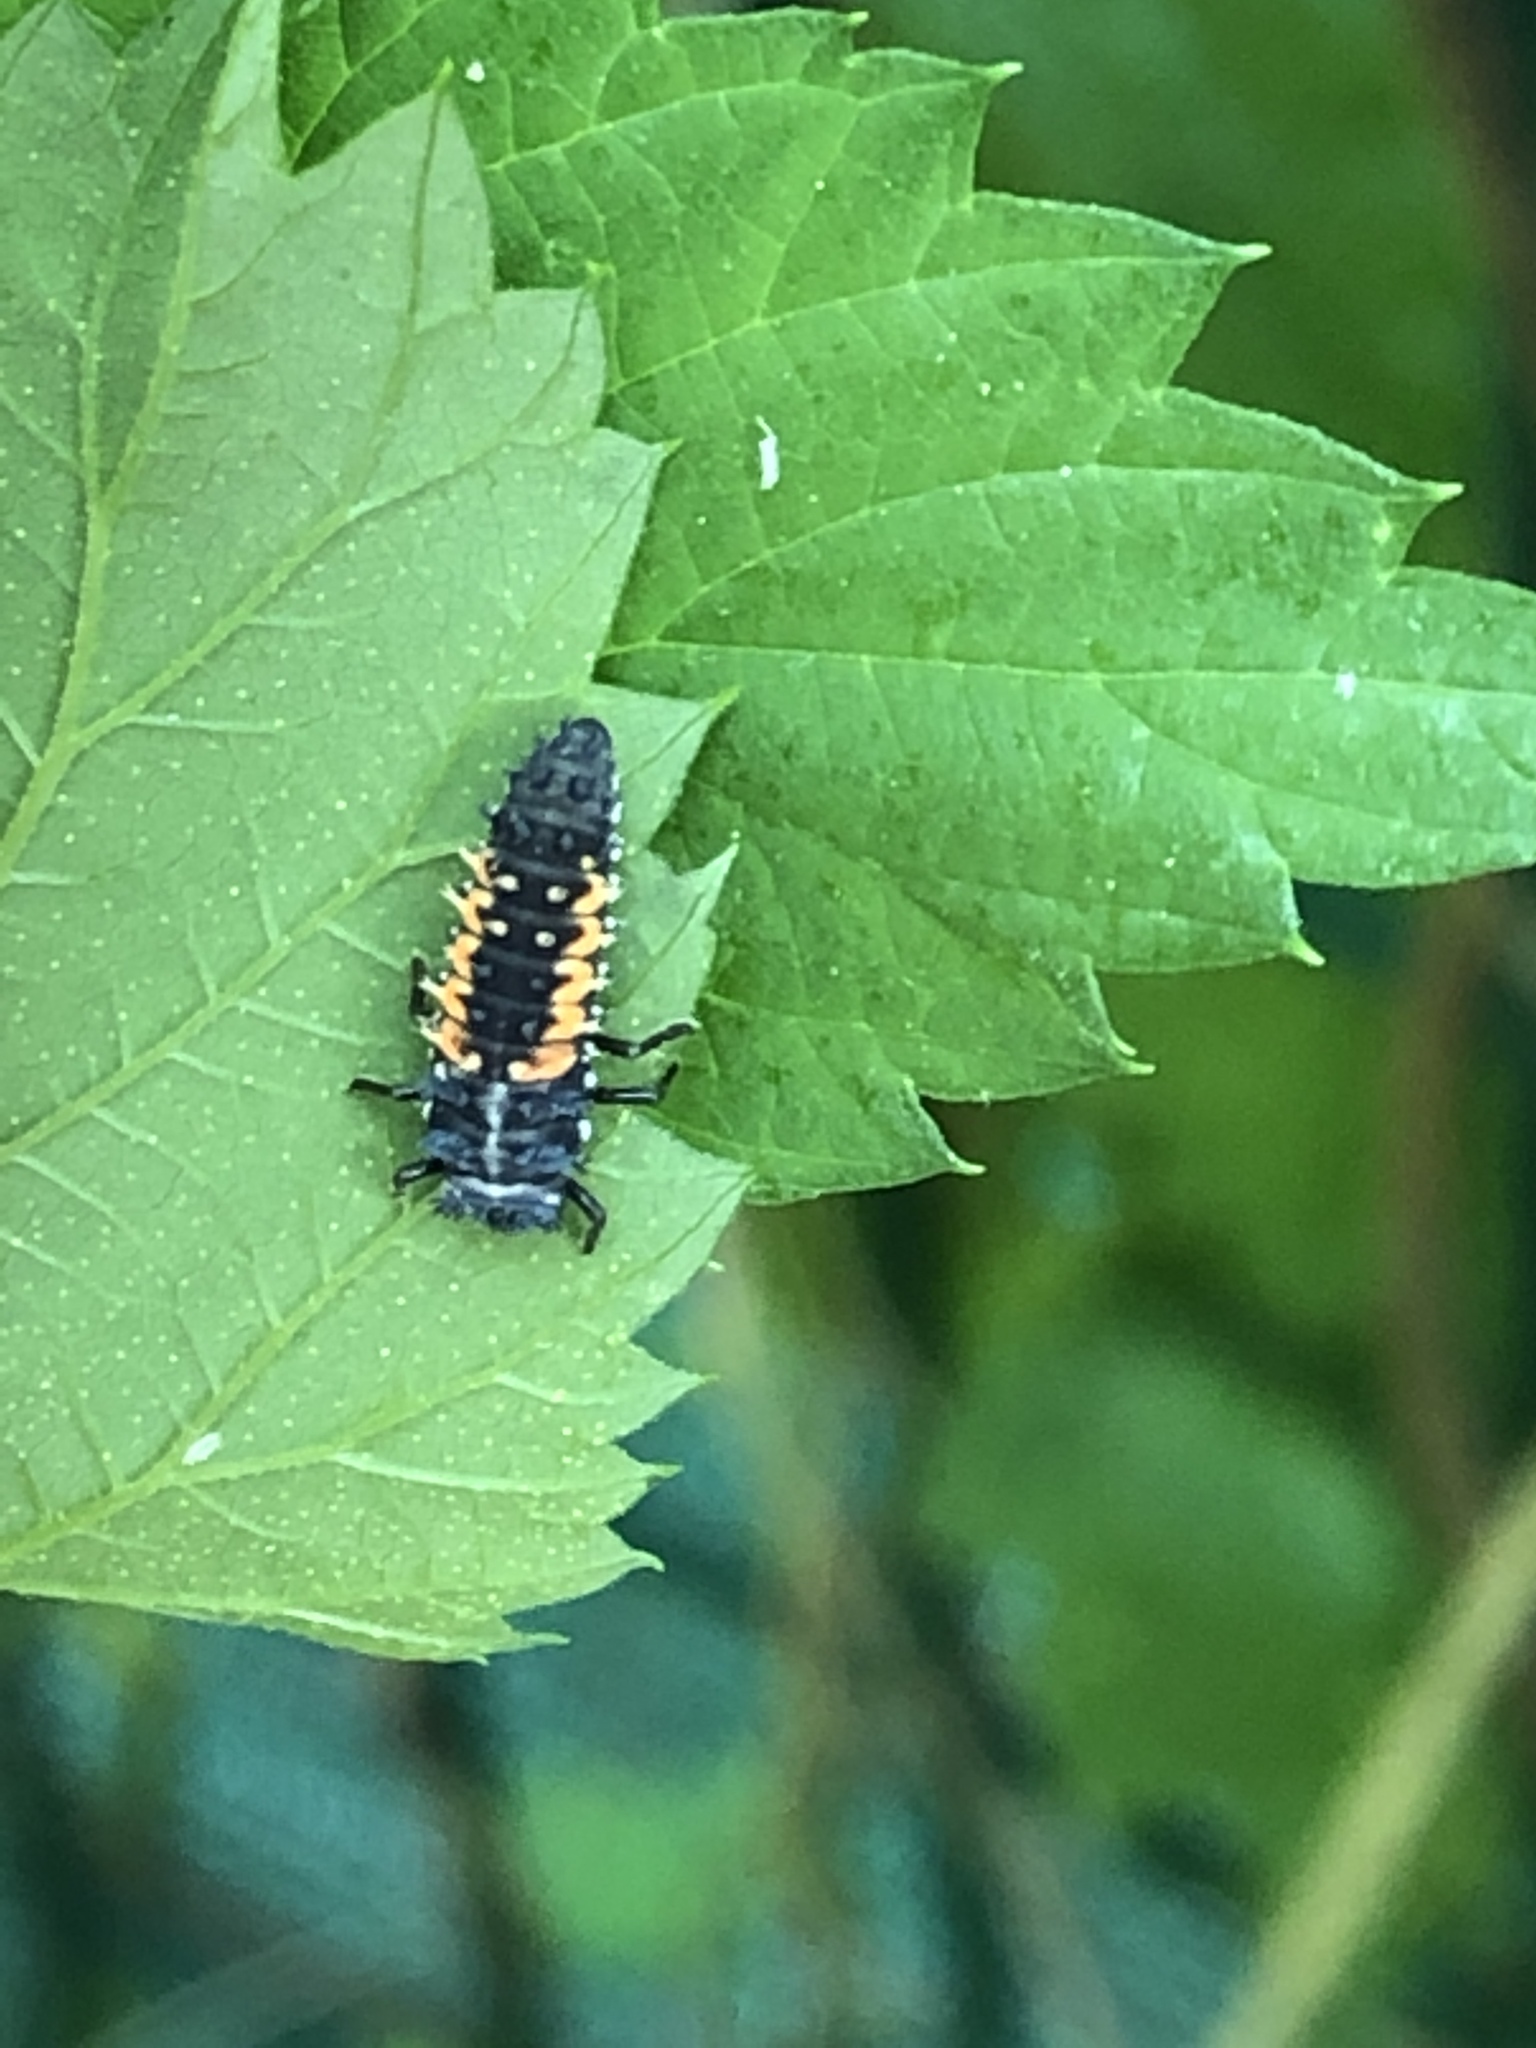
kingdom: Animalia
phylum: Arthropoda
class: Insecta
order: Coleoptera
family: Coccinellidae
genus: Harmonia
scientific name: Harmonia axyridis
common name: Harlequin ladybird
